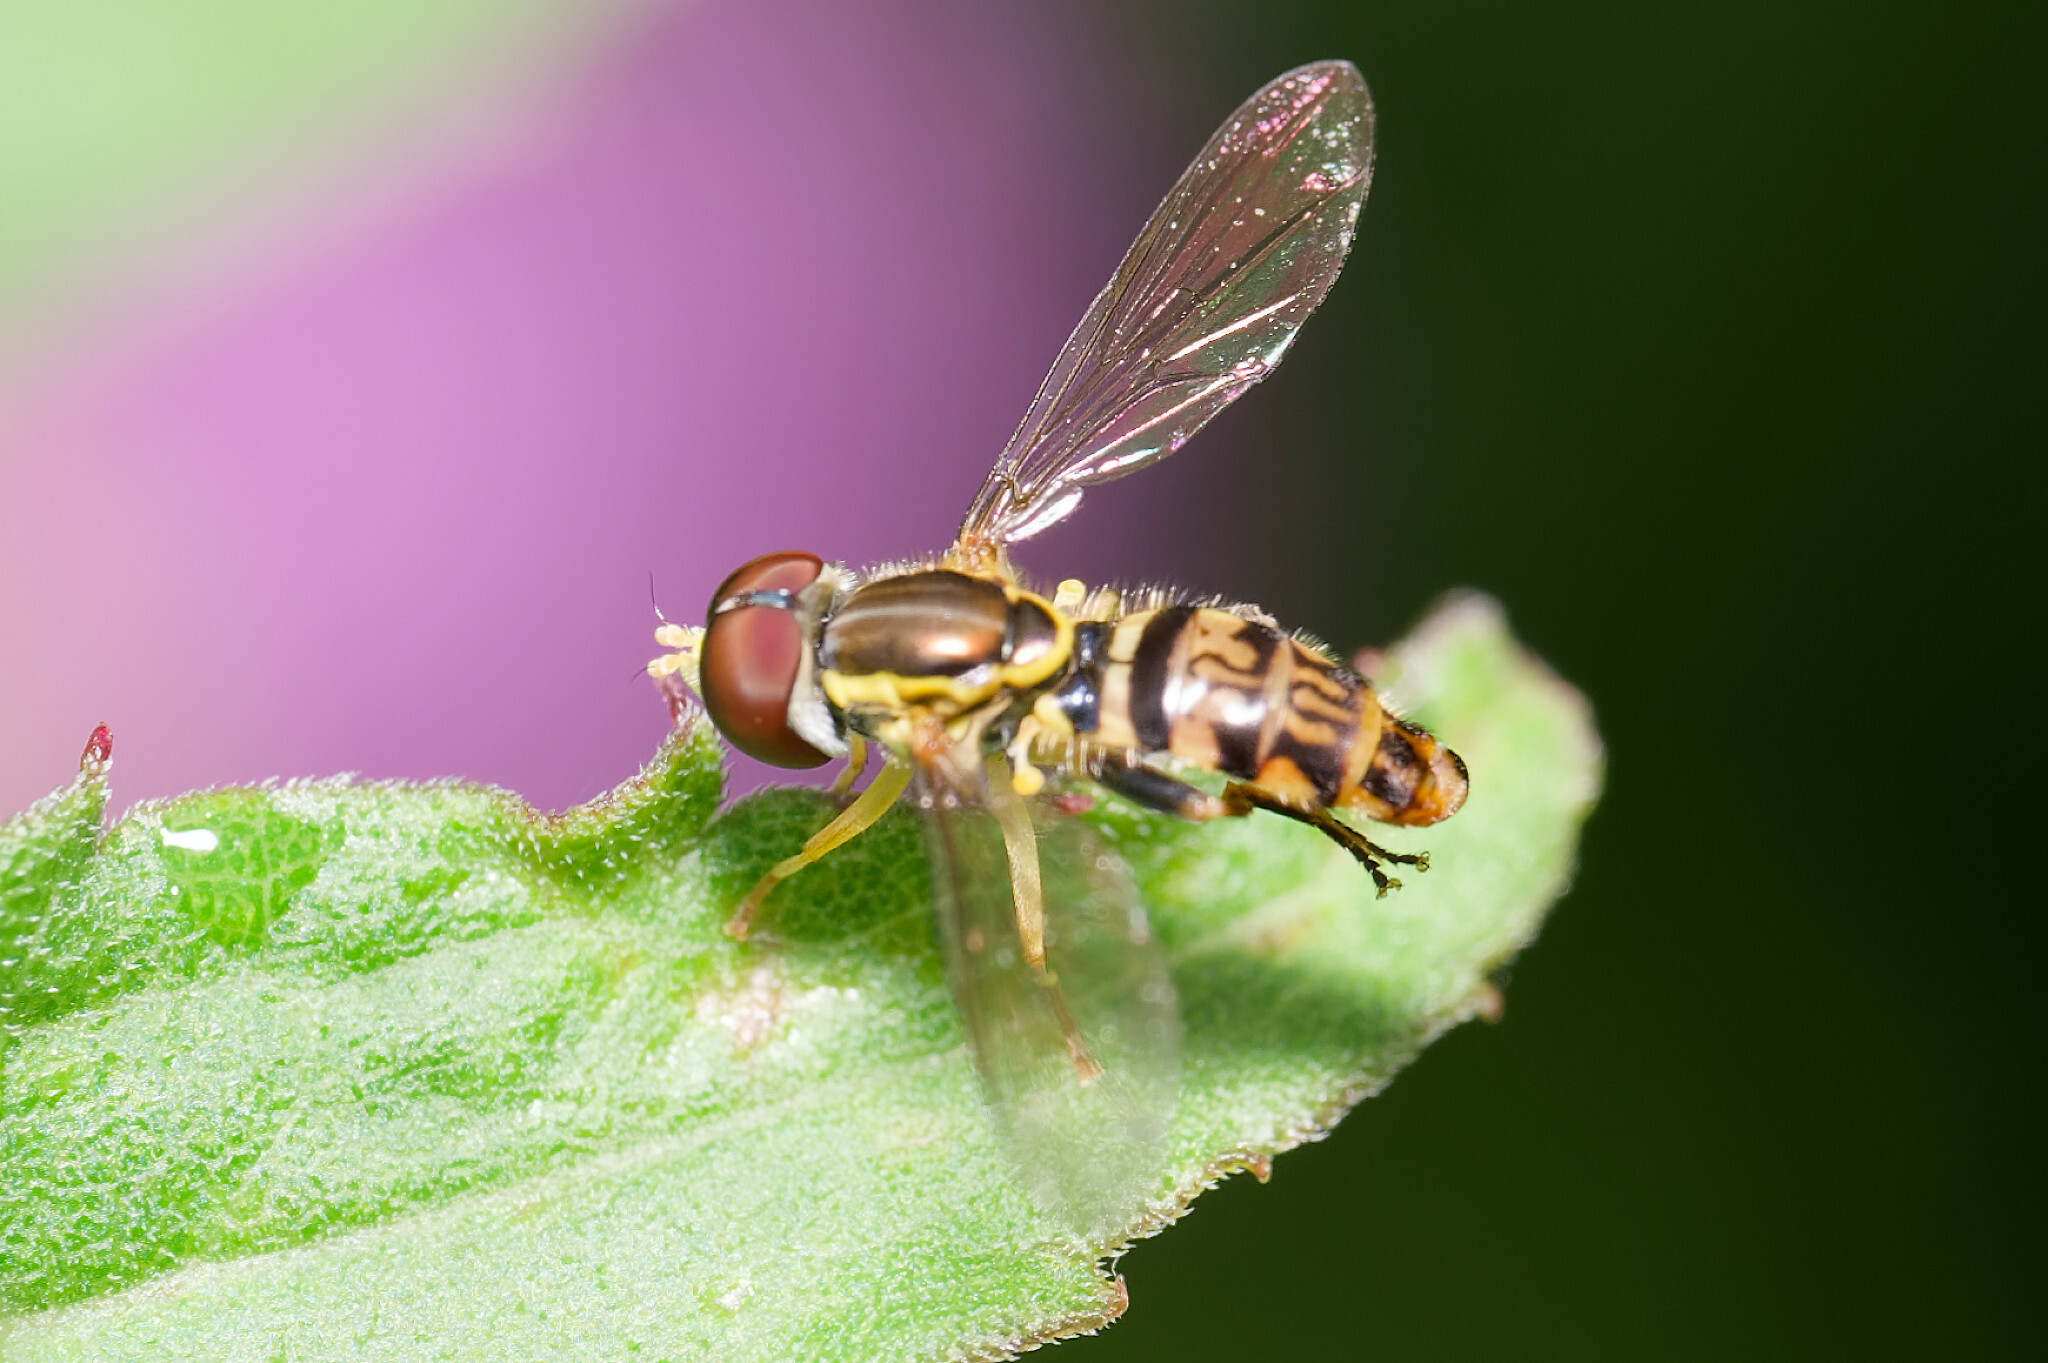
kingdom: Animalia
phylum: Arthropoda
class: Insecta
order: Diptera
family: Syrphidae
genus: Toxomerus
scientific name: Toxomerus geminatus
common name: Eastern calligrapher
